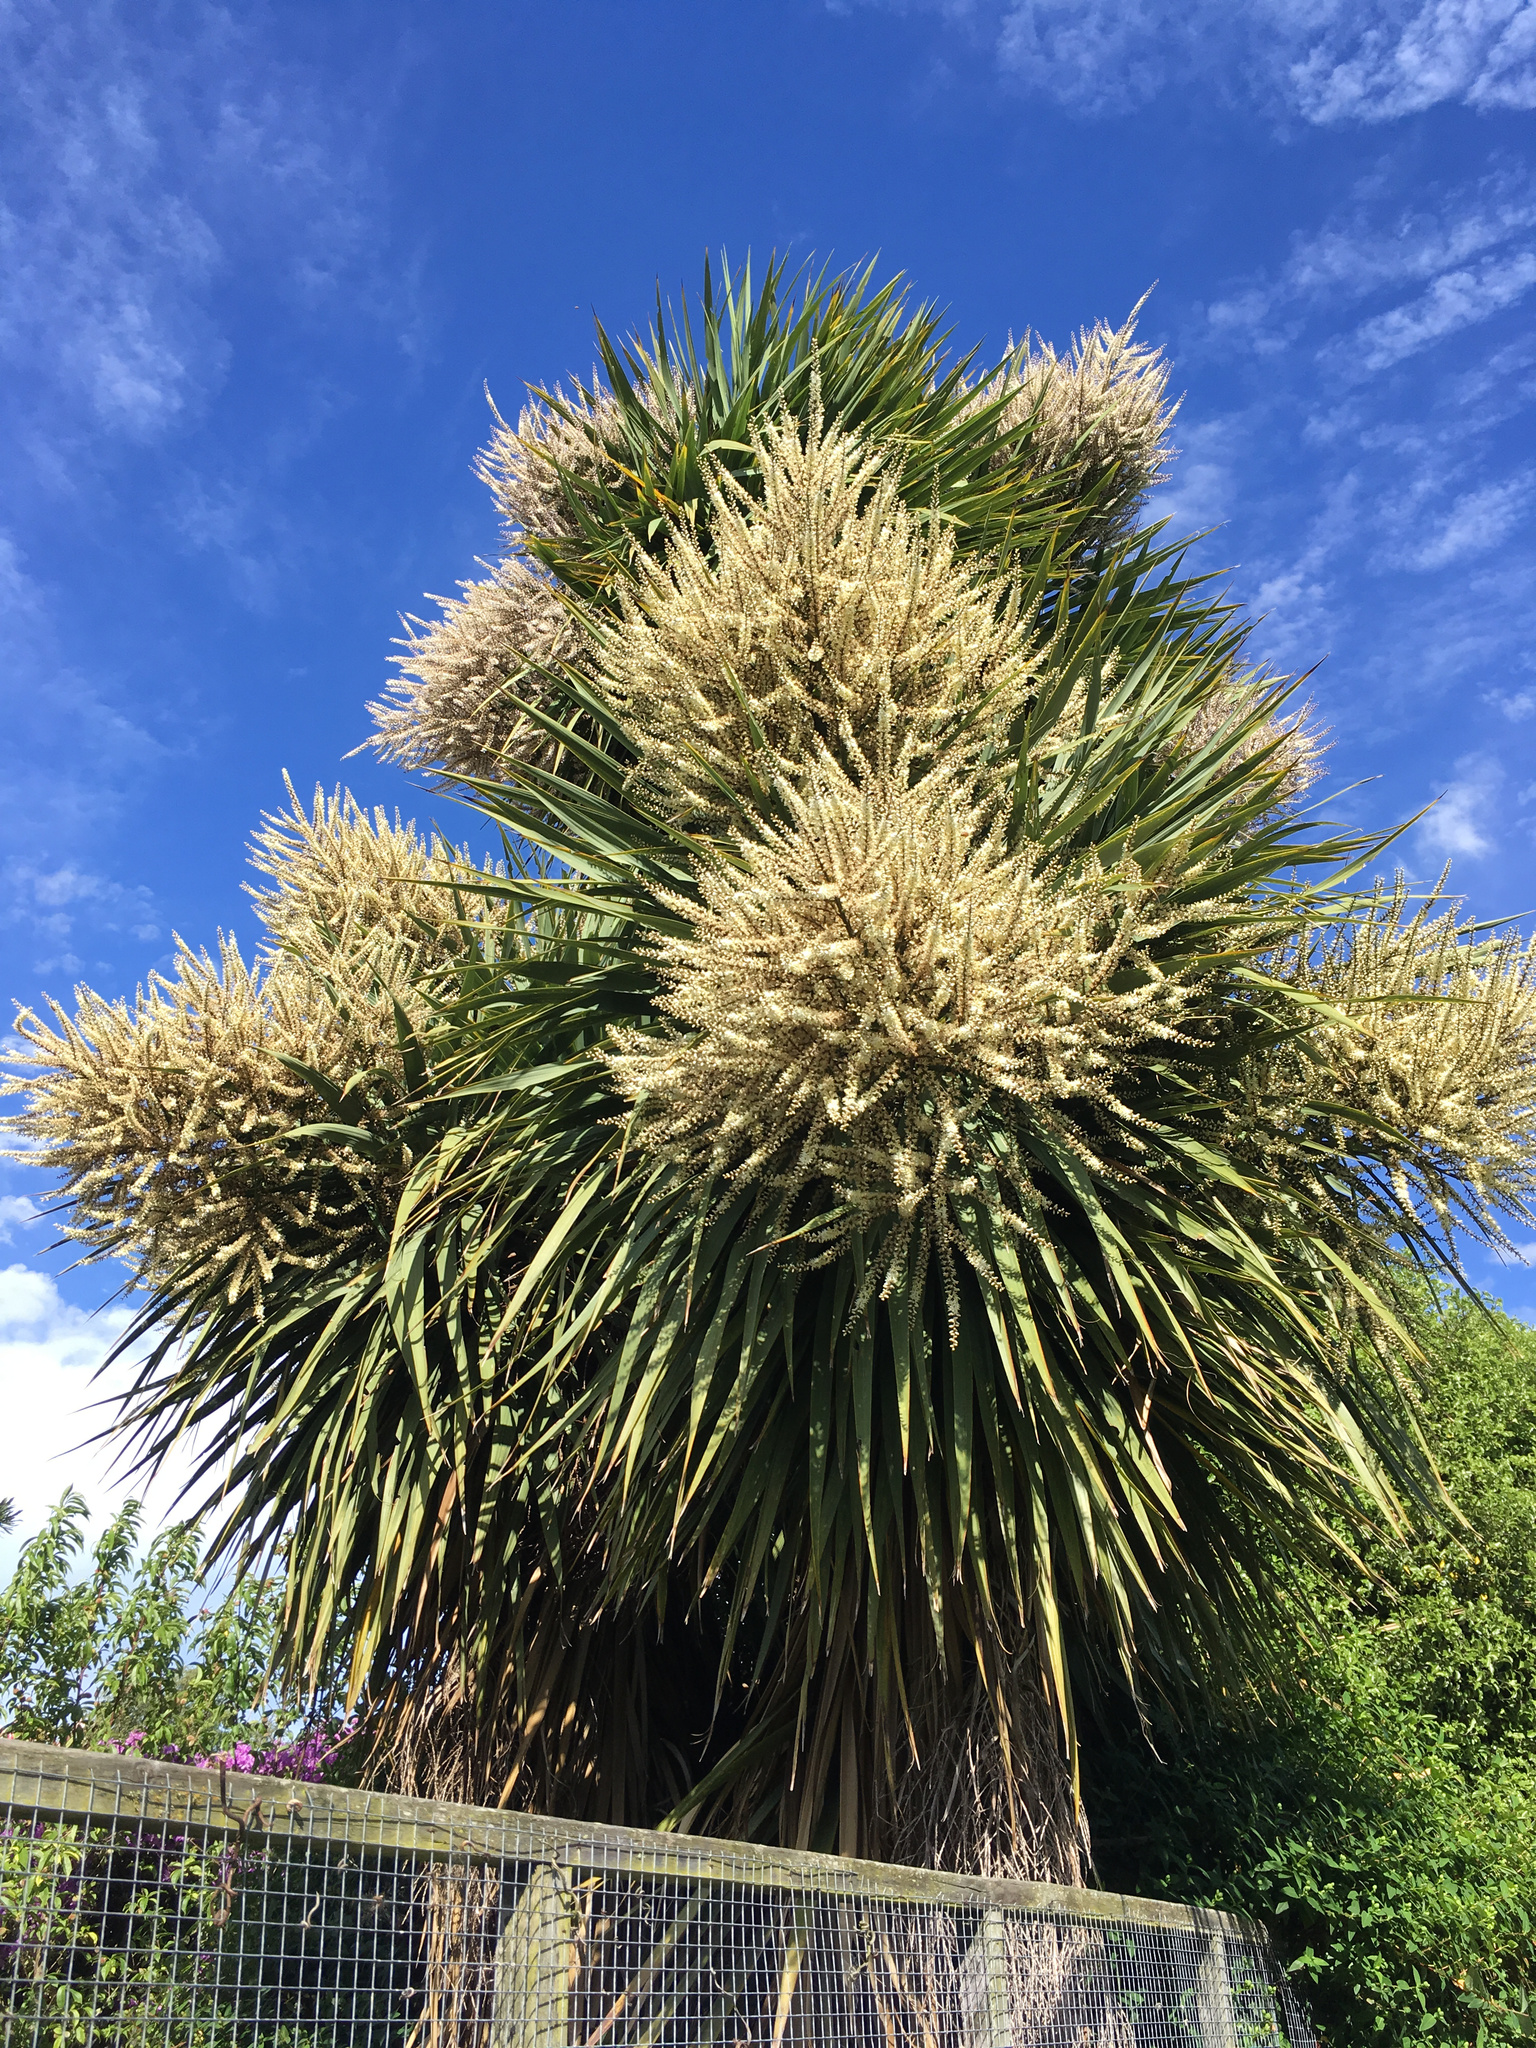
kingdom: Plantae
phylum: Tracheophyta
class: Liliopsida
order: Asparagales
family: Asparagaceae
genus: Cordyline
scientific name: Cordyline australis
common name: Cabbage-palm
